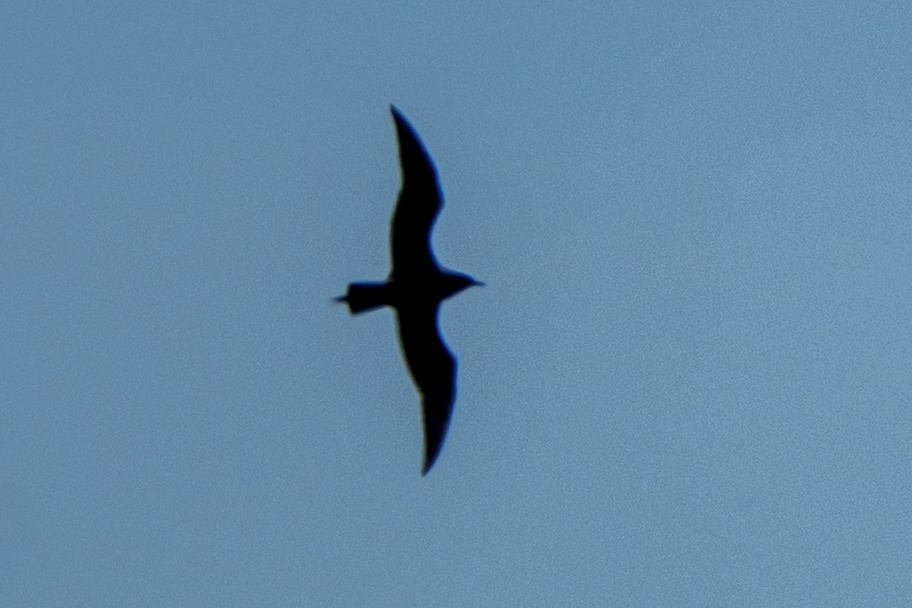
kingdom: Animalia
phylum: Chordata
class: Aves
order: Charadriiformes
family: Stercorariidae
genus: Stercorarius
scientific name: Stercorarius parasiticus
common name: Parasitic jaeger
